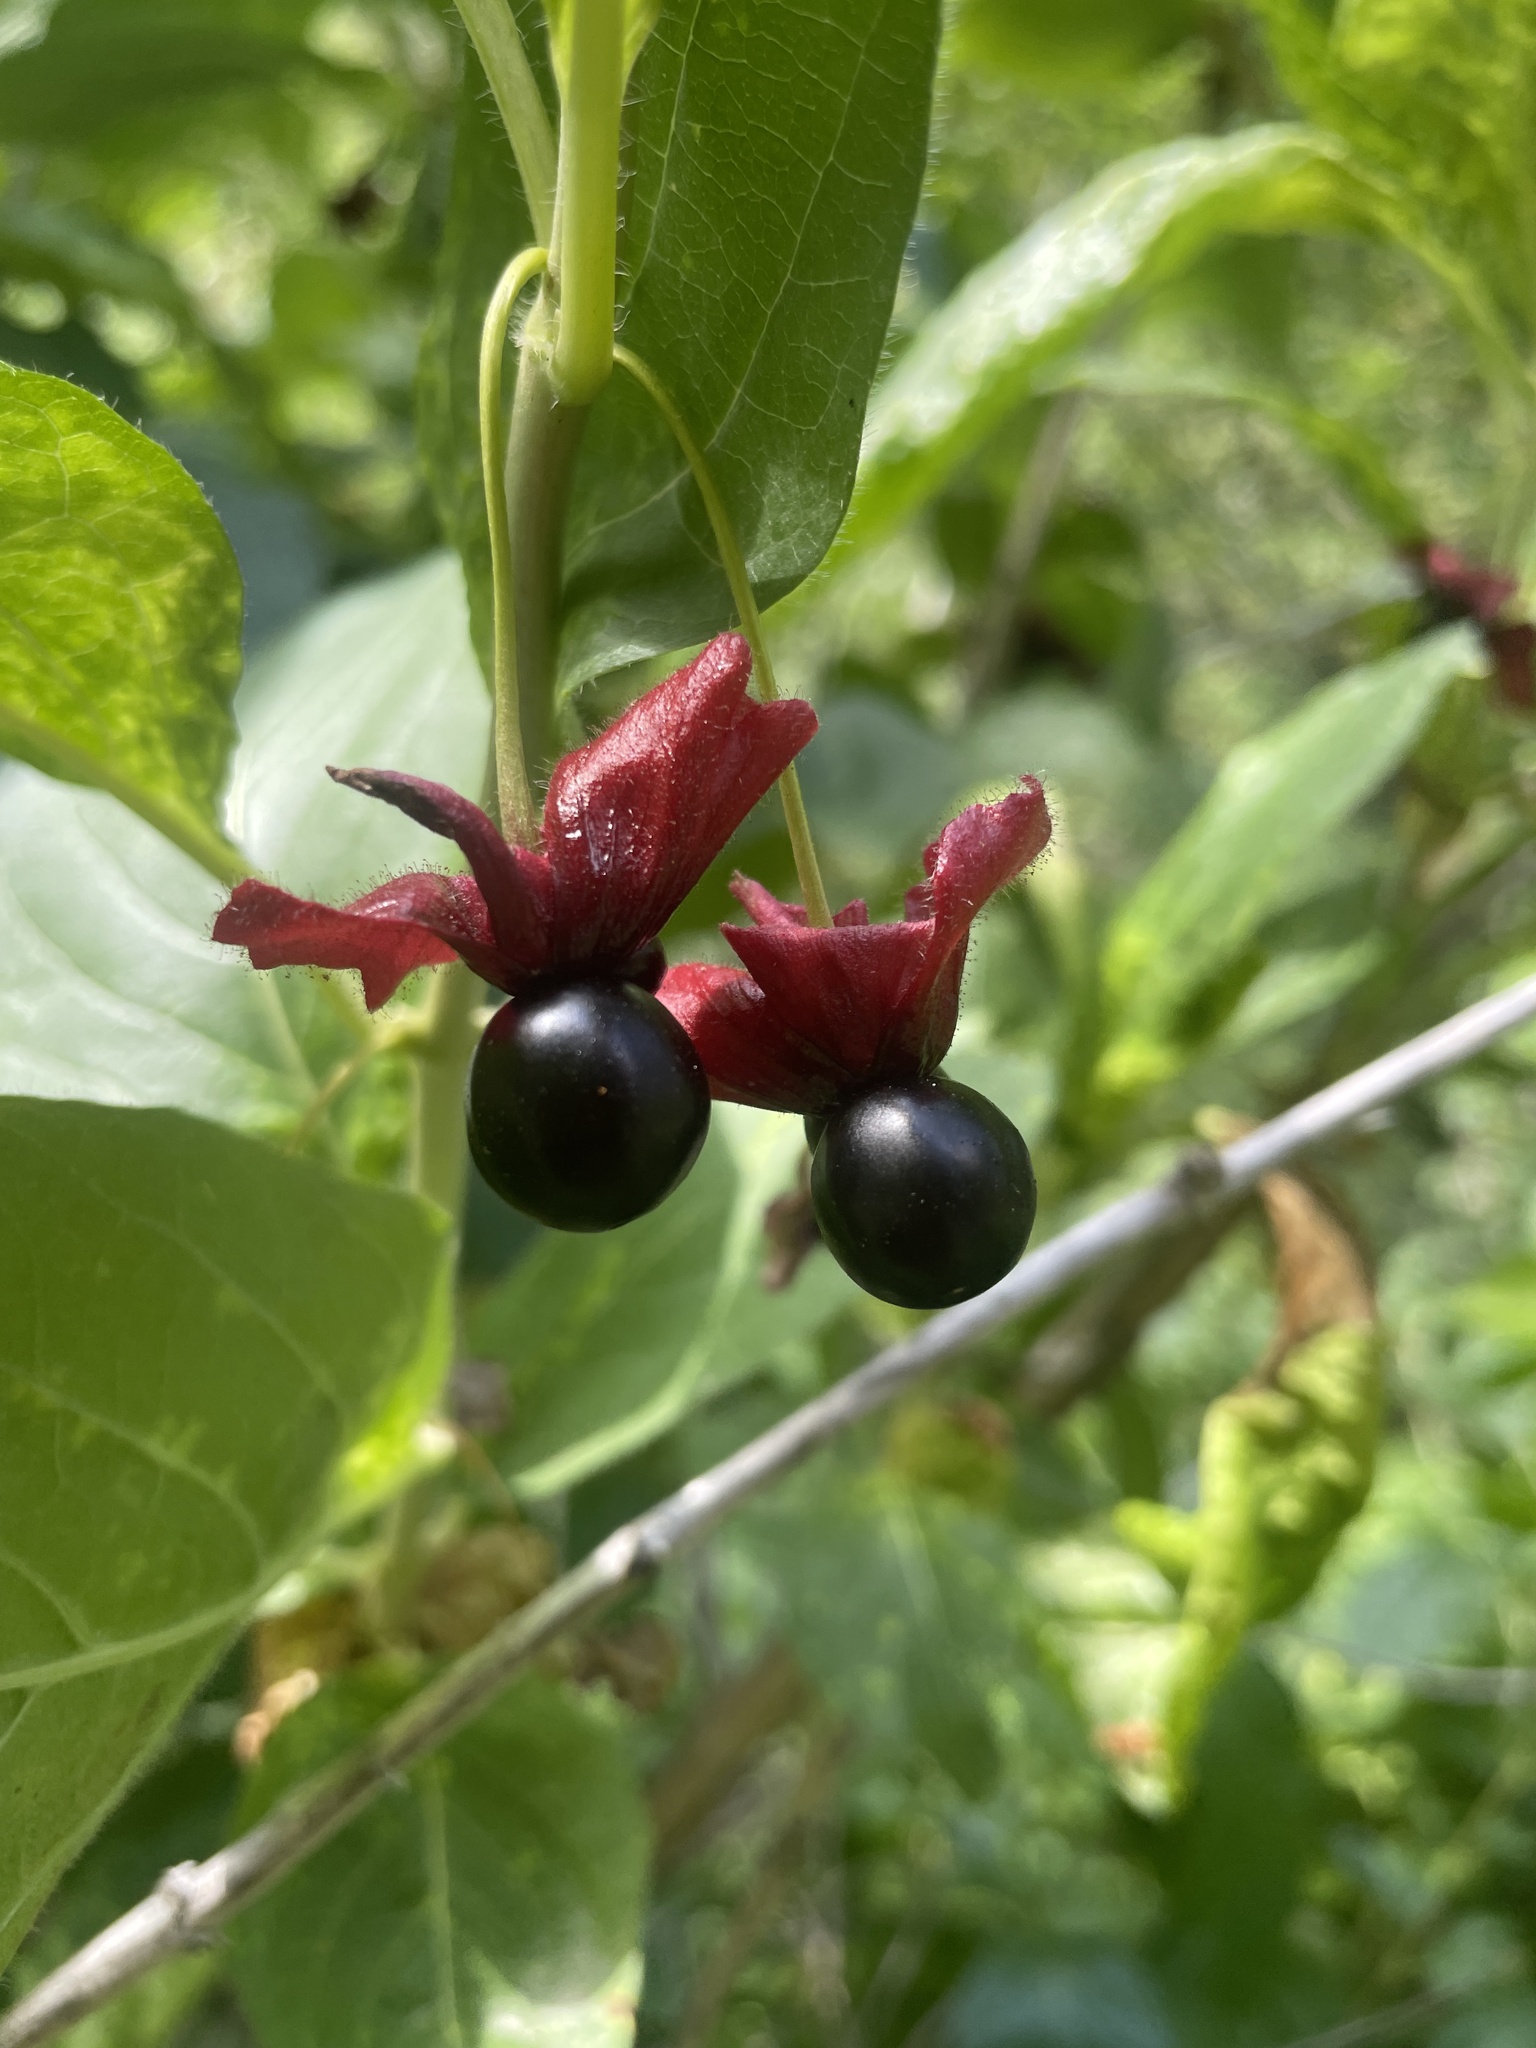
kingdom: Plantae
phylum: Tracheophyta
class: Magnoliopsida
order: Dipsacales
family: Caprifoliaceae
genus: Lonicera
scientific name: Lonicera involucrata
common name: Californian honeysuckle
